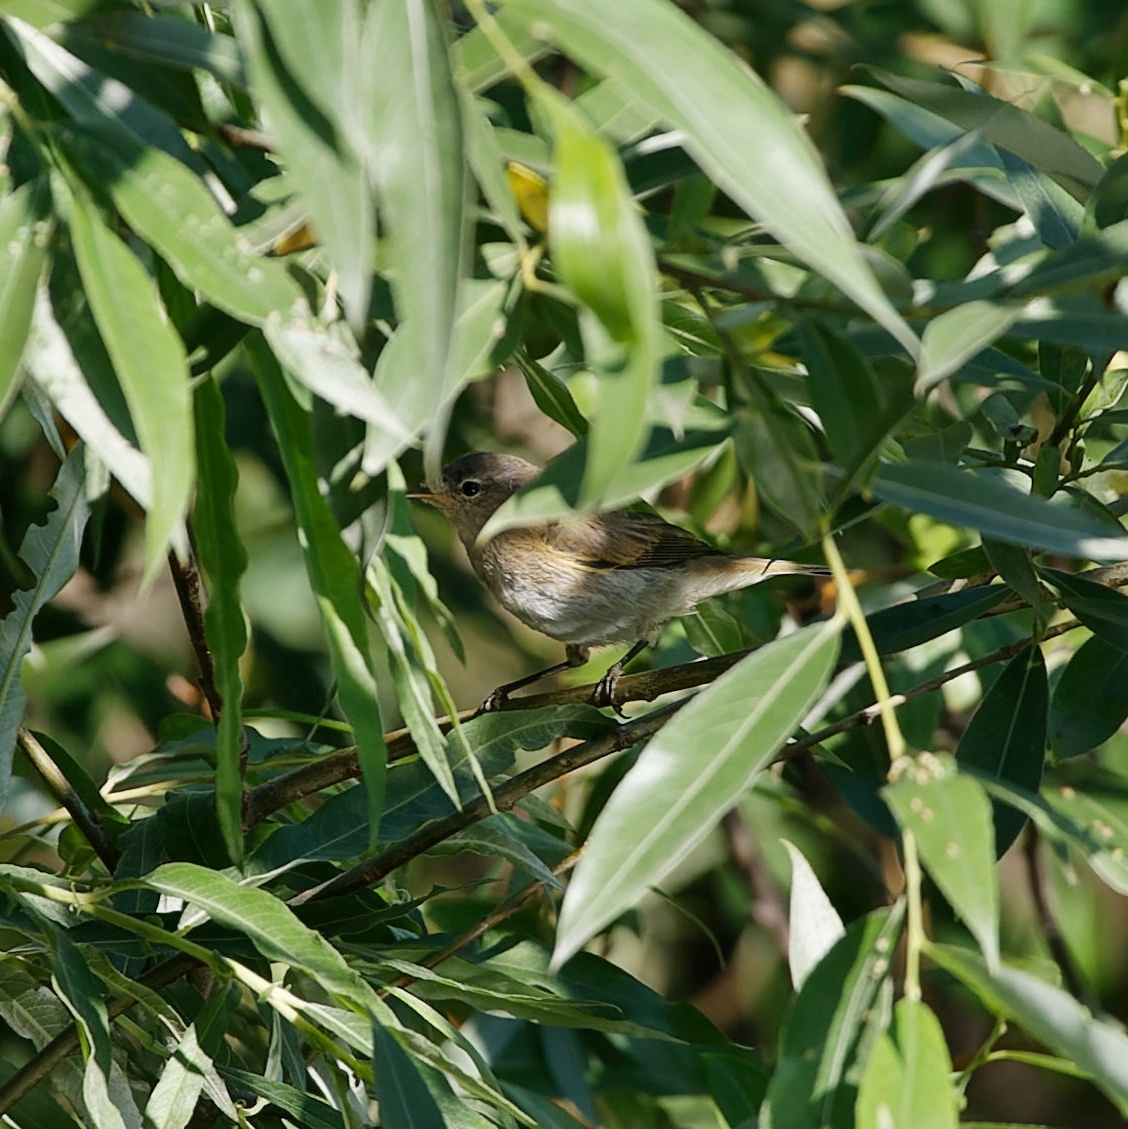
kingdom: Animalia
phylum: Chordata
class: Aves
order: Passeriformes
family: Phylloscopidae
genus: Phylloscopus
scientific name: Phylloscopus collybita
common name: Common chiffchaff
